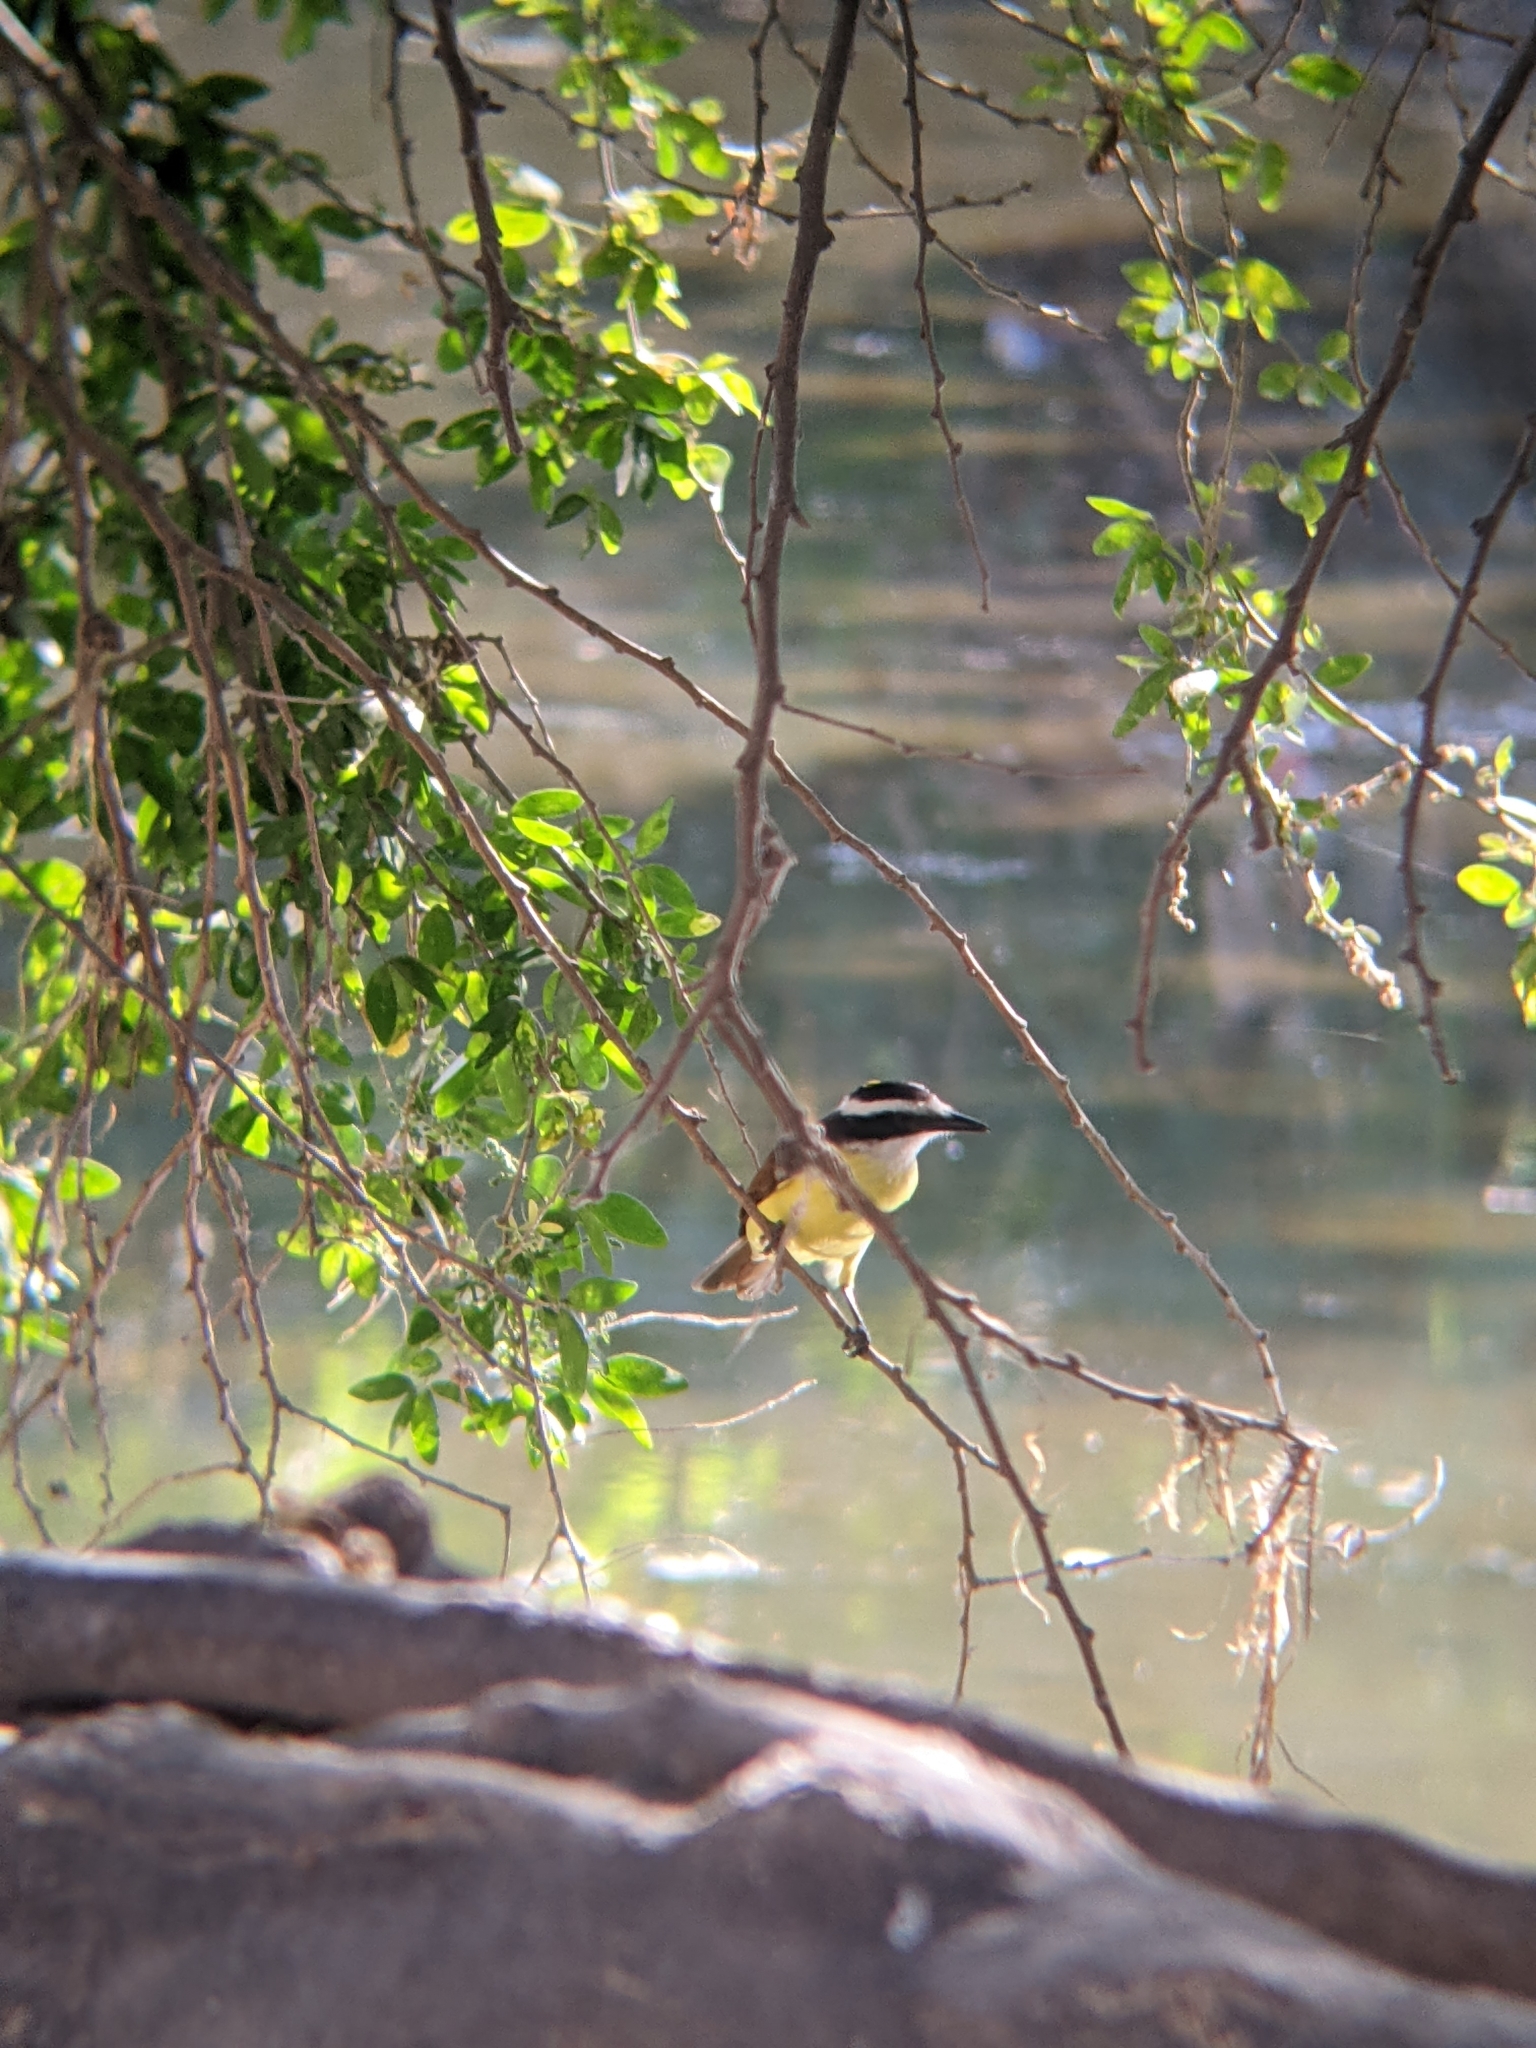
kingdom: Animalia
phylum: Chordata
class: Aves
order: Passeriformes
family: Tyrannidae
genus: Pitangus
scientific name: Pitangus sulphuratus
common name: Great kiskadee
